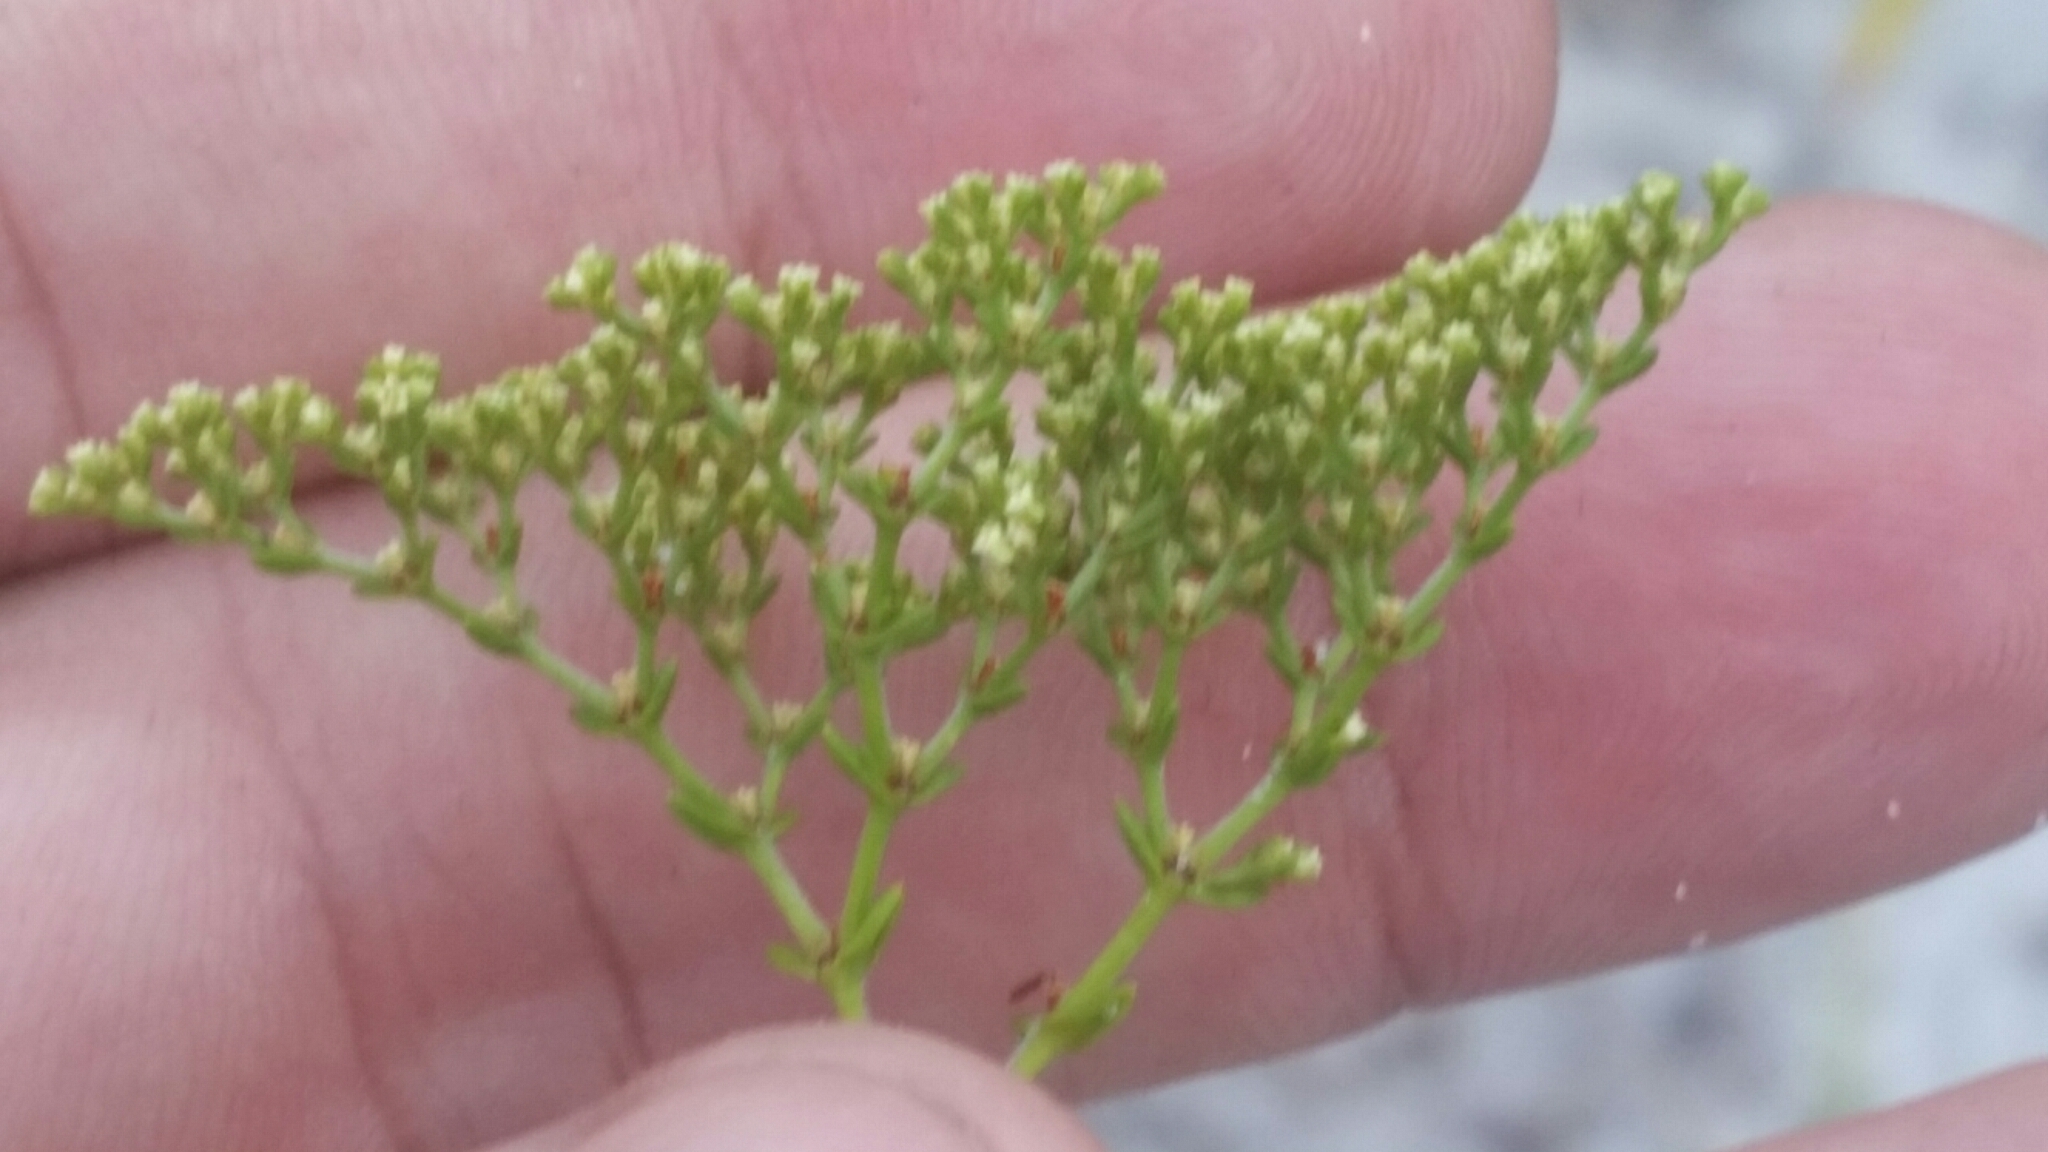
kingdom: Plantae
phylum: Tracheophyta
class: Magnoliopsida
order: Caryophyllales
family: Caryophyllaceae
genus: Paronychia
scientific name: Paronychia chartacea
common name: Paper nailwort
